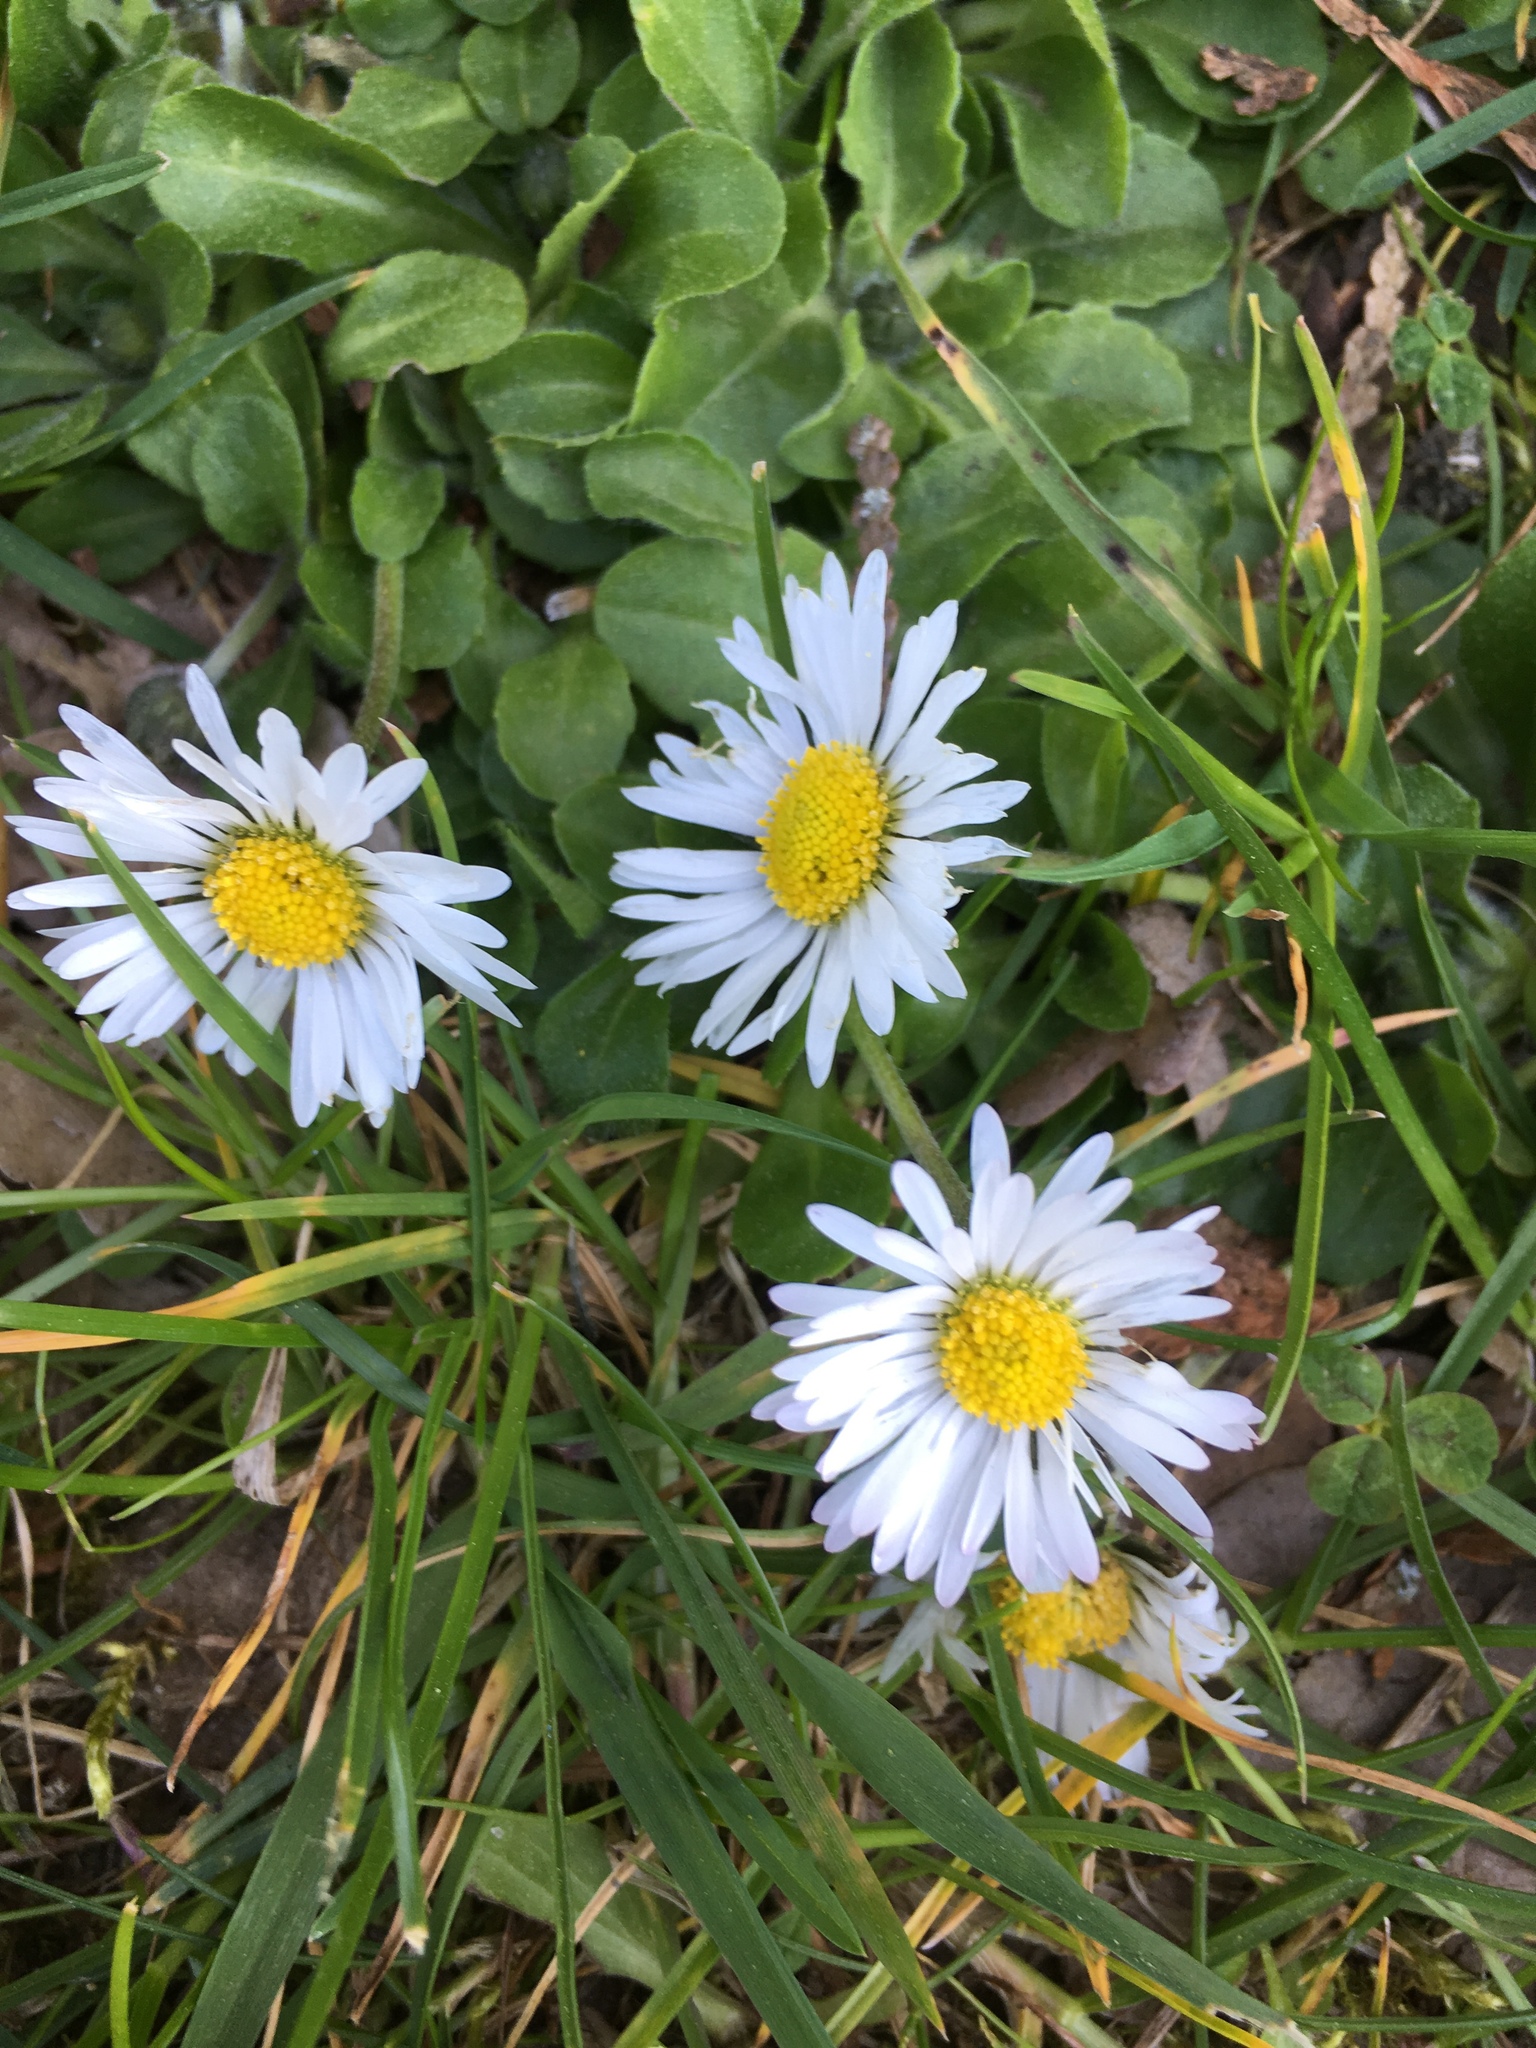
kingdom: Plantae
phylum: Tracheophyta
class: Magnoliopsida
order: Asterales
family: Asteraceae
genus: Bellis
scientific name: Bellis perennis
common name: Lawndaisy
